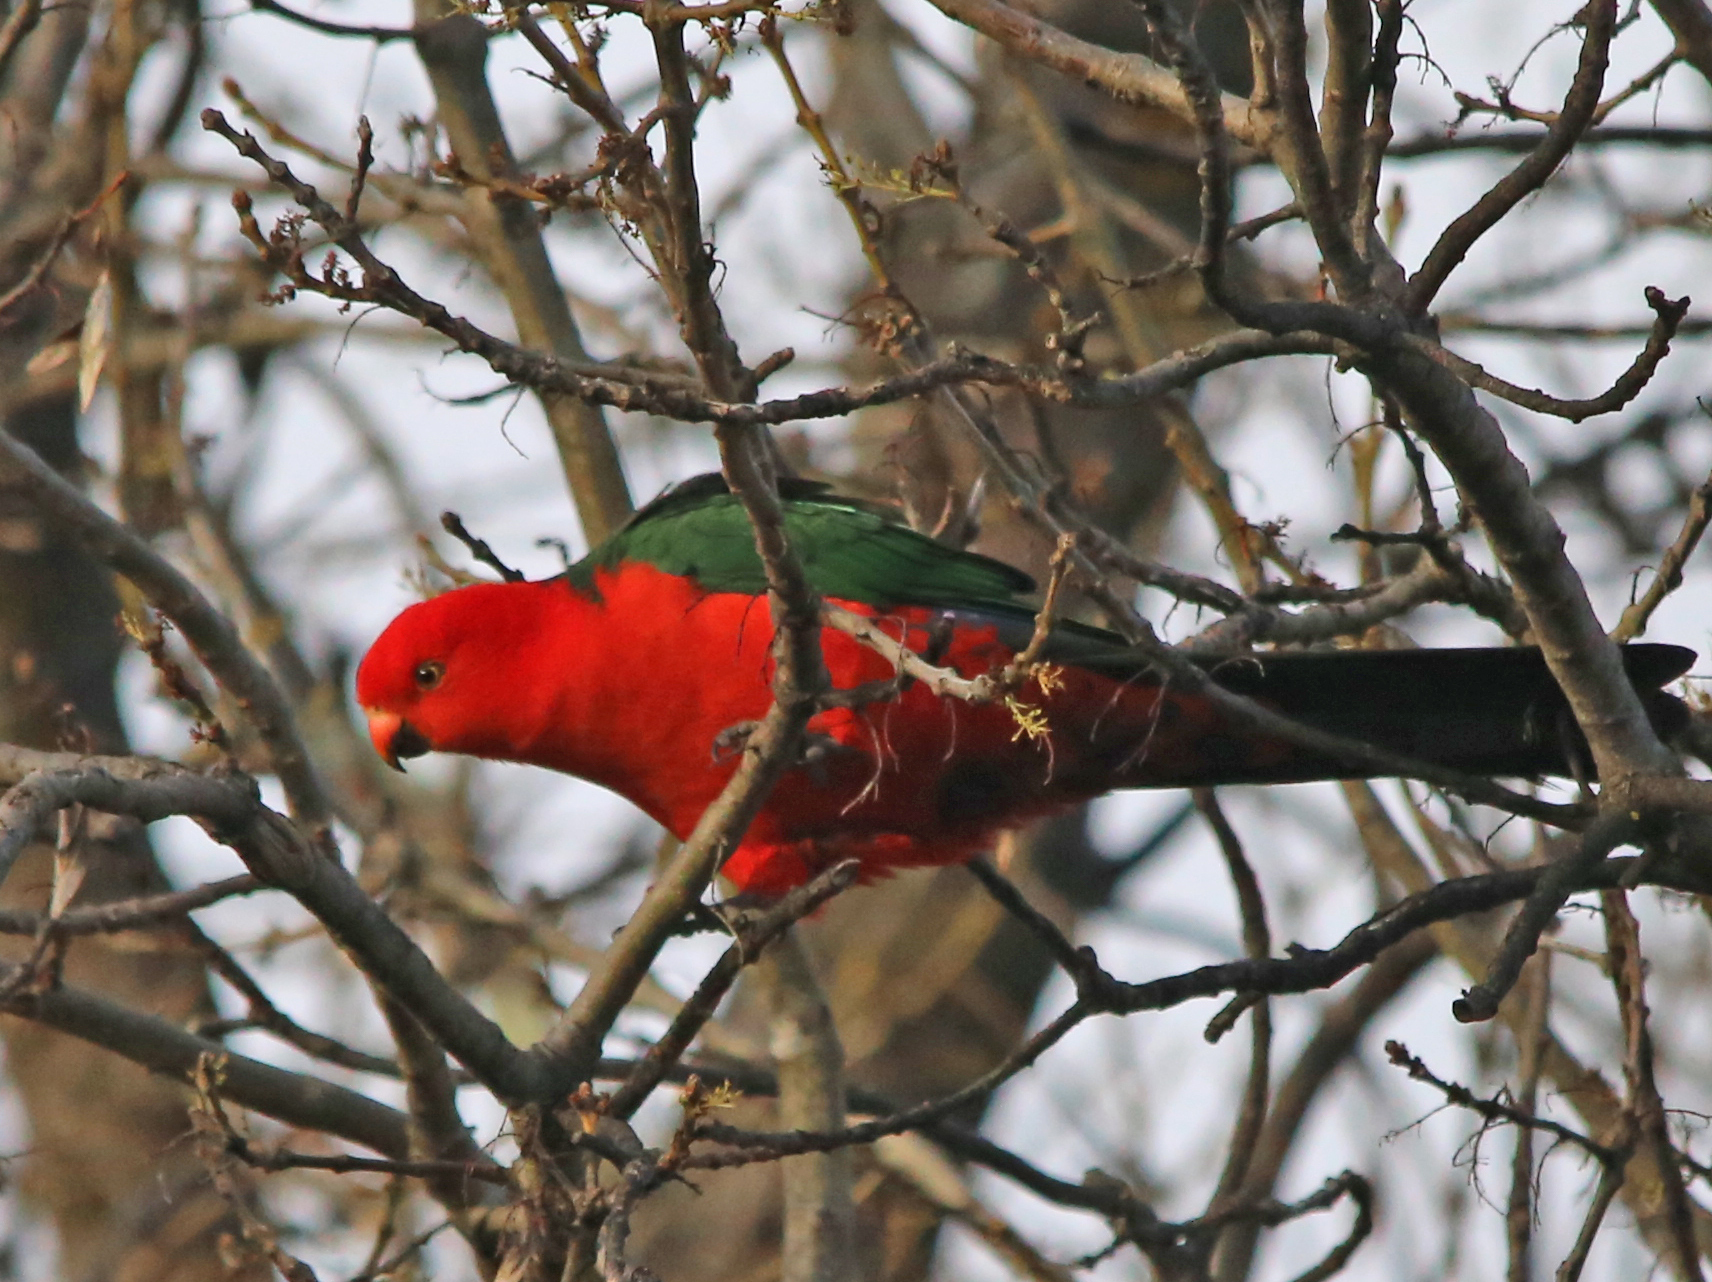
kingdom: Animalia
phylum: Chordata
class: Aves
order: Psittaciformes
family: Psittacidae
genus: Alisterus
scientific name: Alisterus scapularis
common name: Australian king parrot
